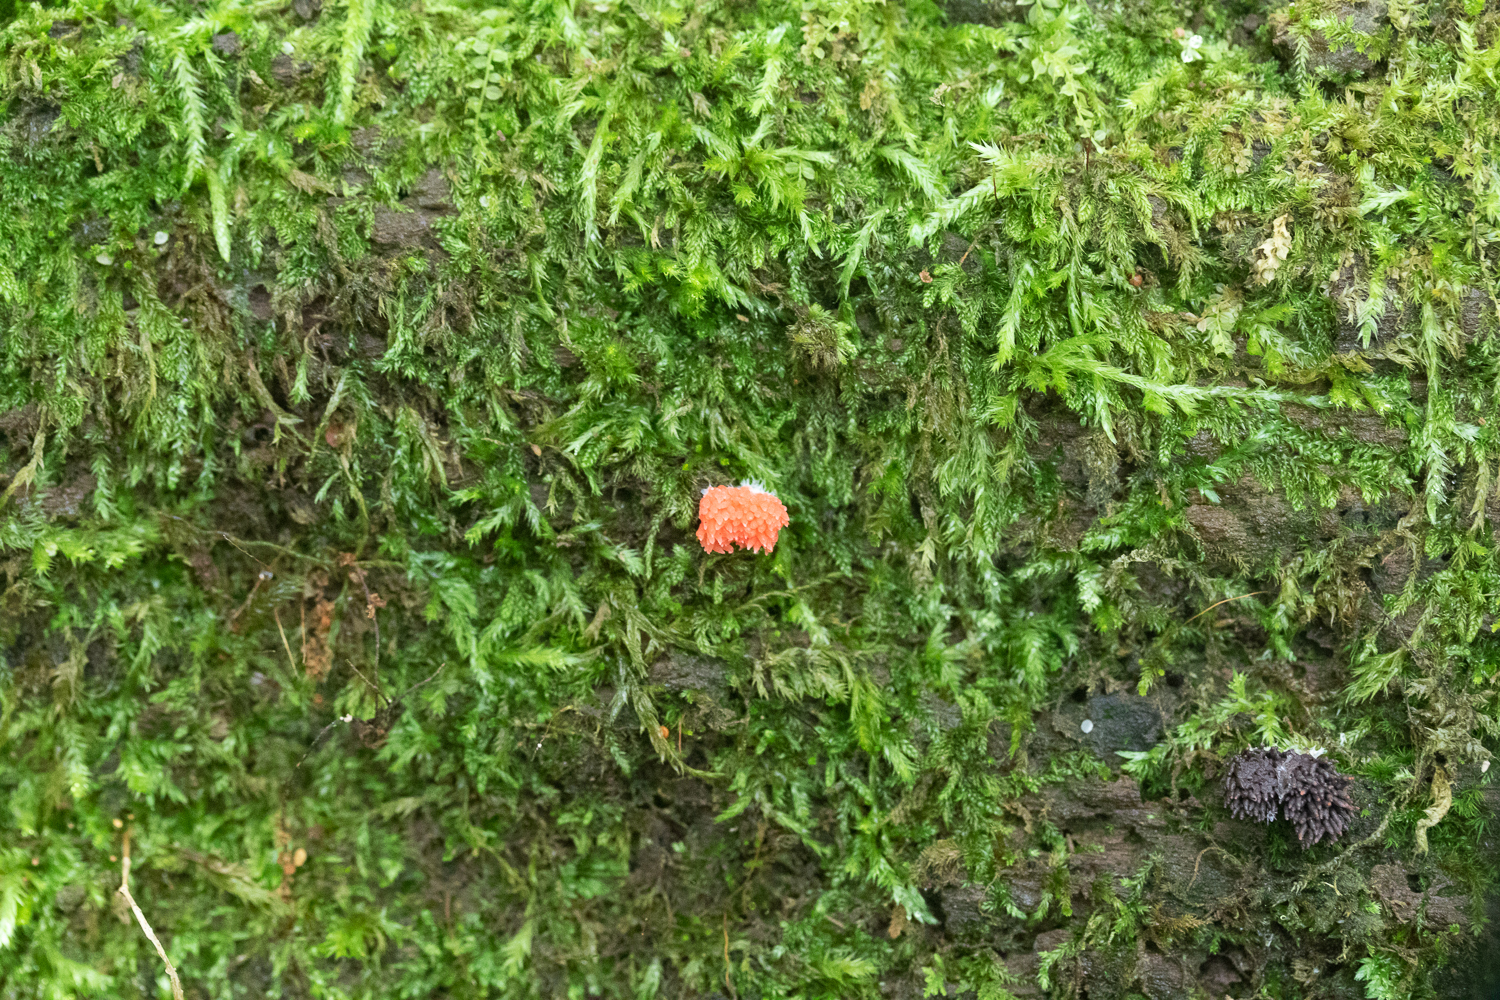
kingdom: Protozoa
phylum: Mycetozoa
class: Myxomycetes
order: Cribrariales
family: Tubiferaceae
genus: Tubifera
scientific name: Tubifera ferruginosa
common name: Red raspberry slime mold
